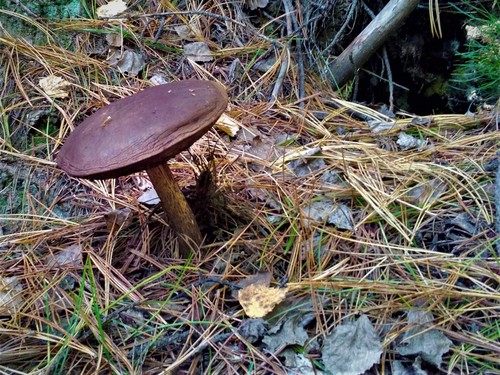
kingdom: Fungi
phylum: Basidiomycota
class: Agaricomycetes
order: Boletales
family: Boletaceae
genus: Leccinum
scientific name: Leccinum
